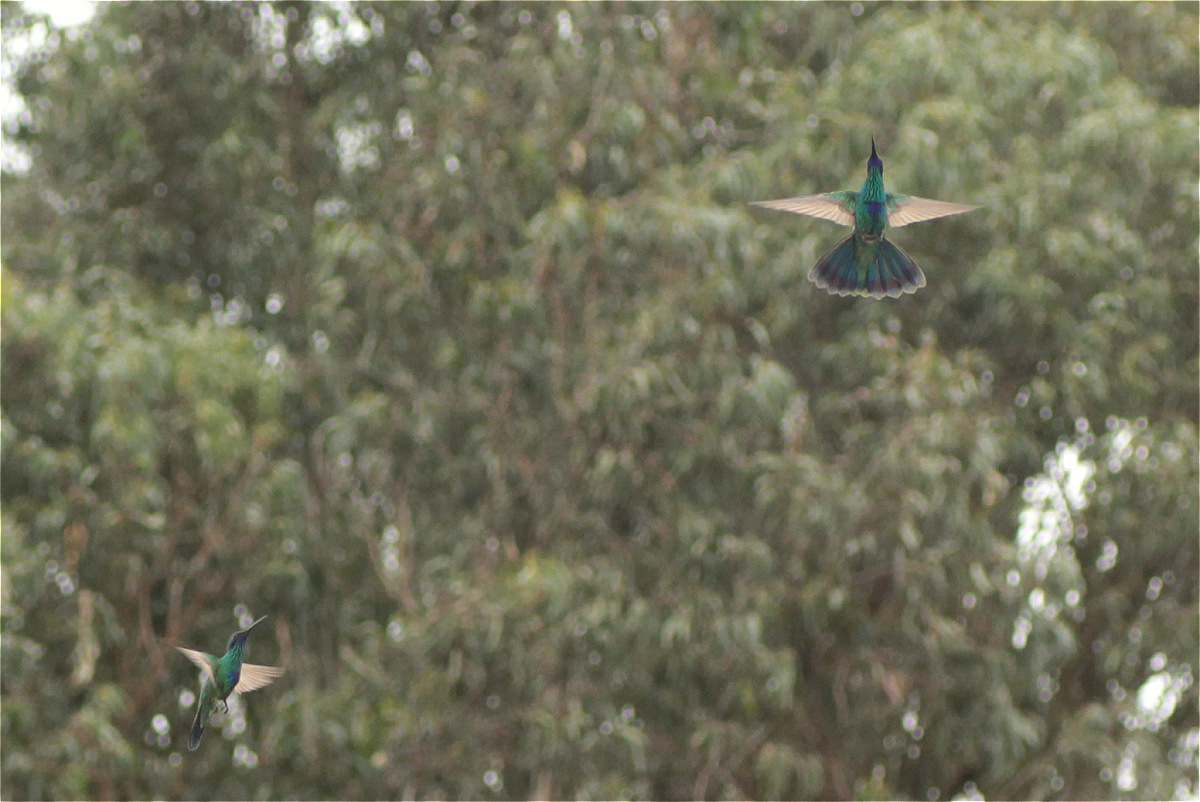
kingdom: Animalia
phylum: Chordata
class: Aves
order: Apodiformes
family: Trochilidae
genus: Colibri
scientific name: Colibri coruscans
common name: Sparkling violetear
